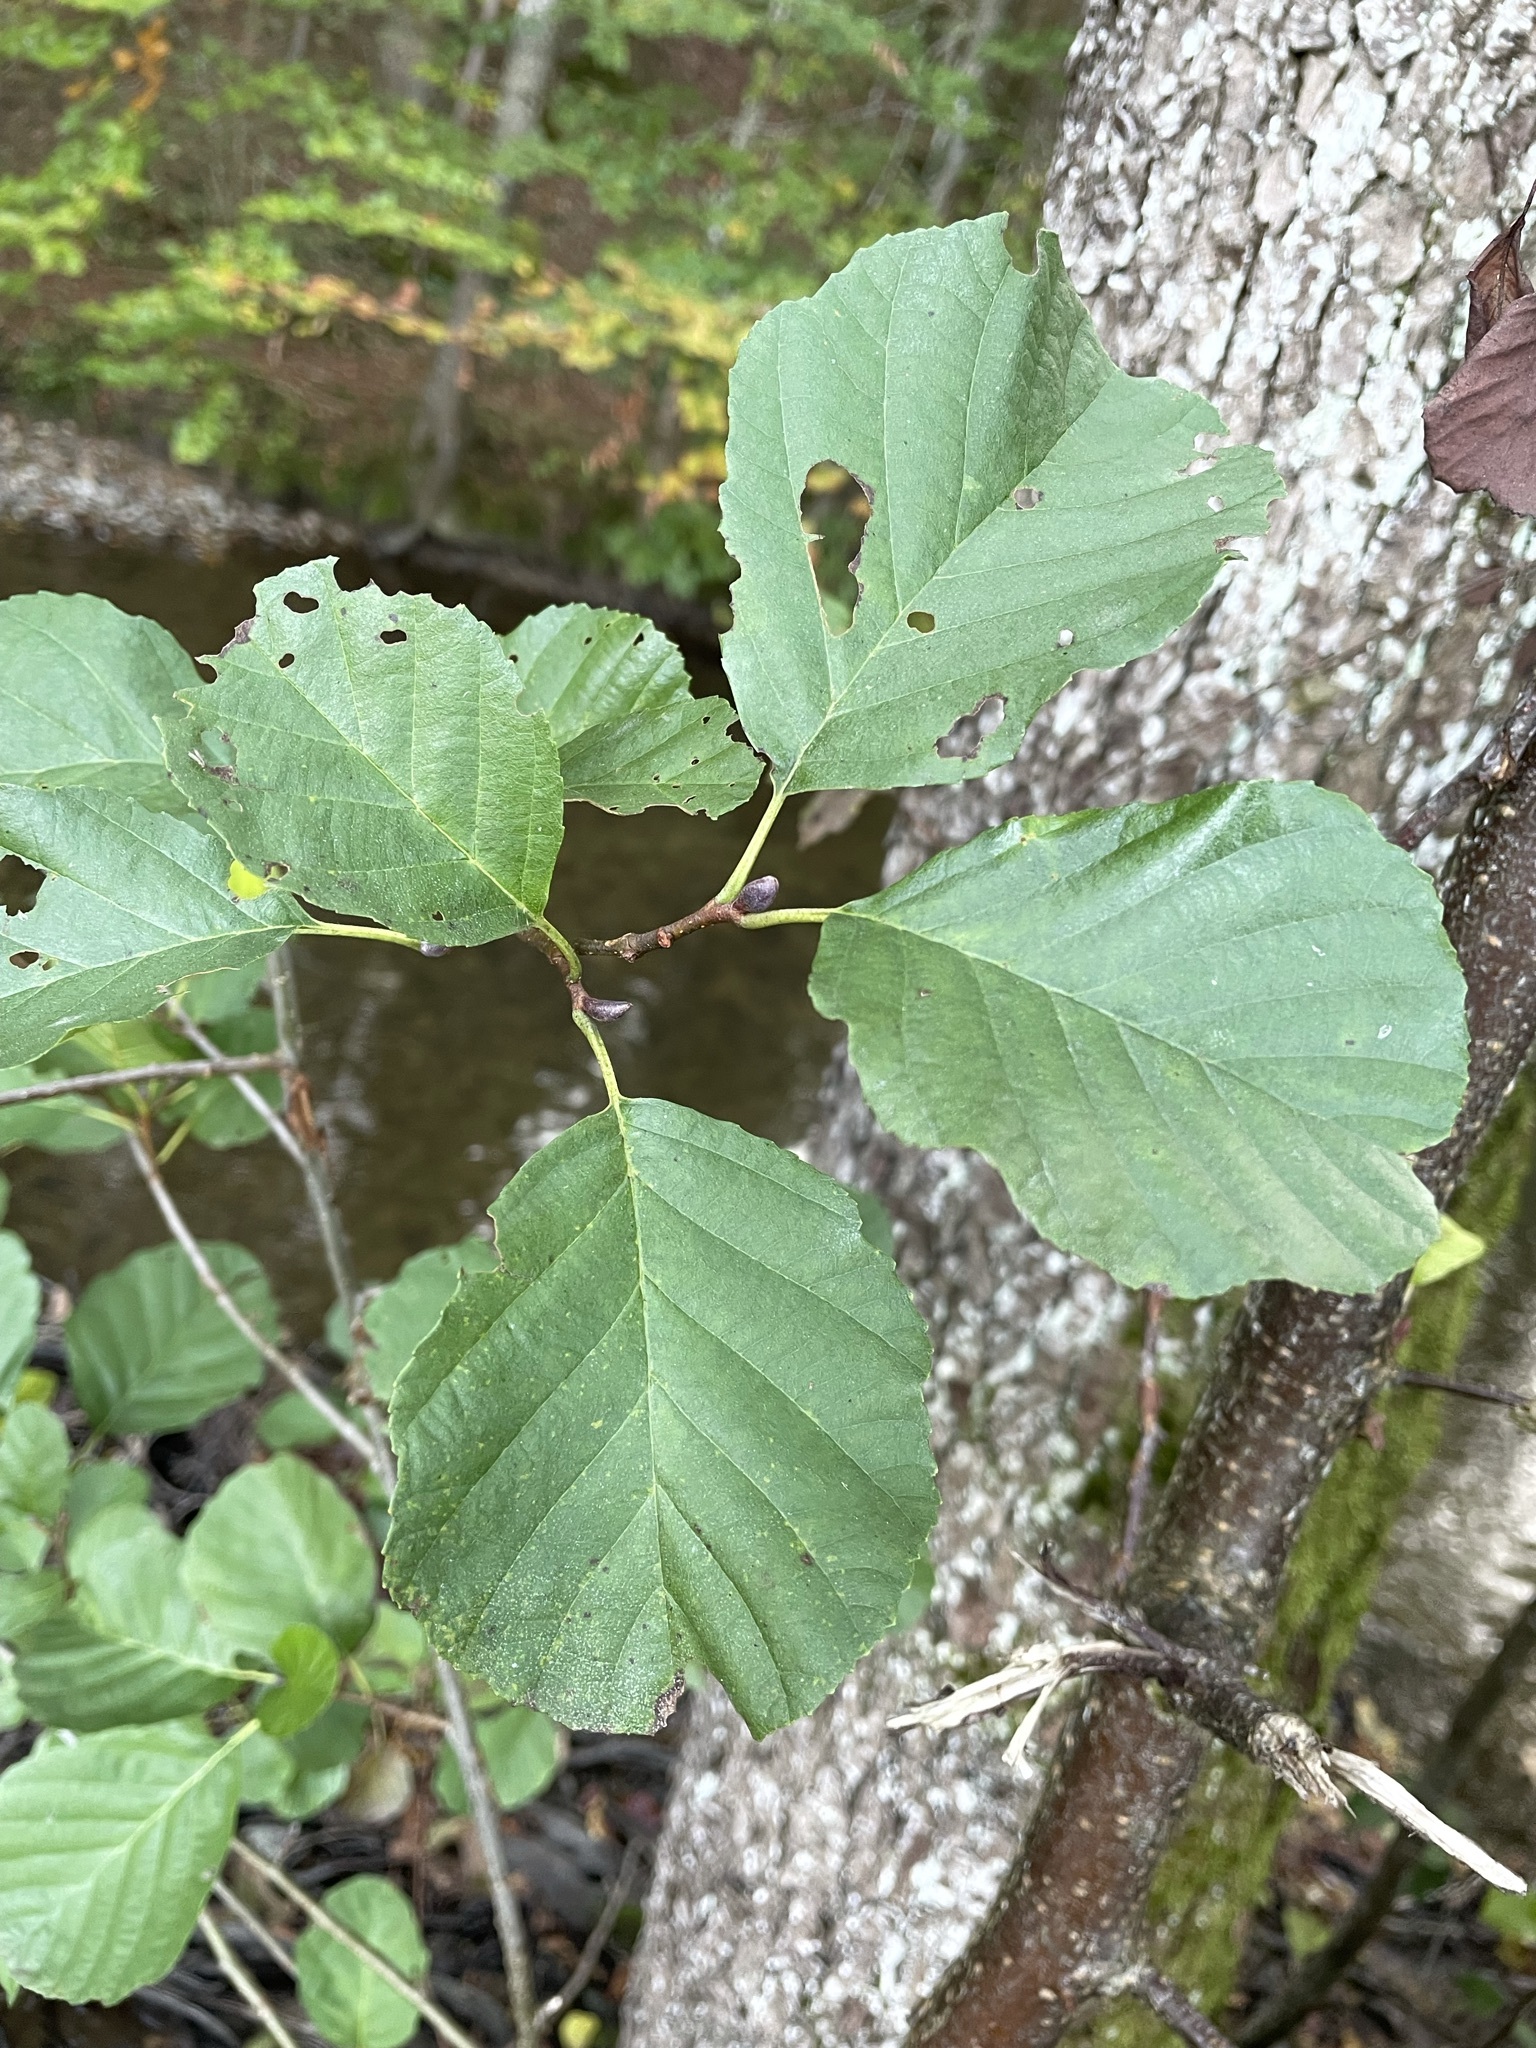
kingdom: Plantae
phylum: Tracheophyta
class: Magnoliopsida
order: Fagales
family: Betulaceae
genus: Alnus
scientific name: Alnus glutinosa
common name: Black alder
